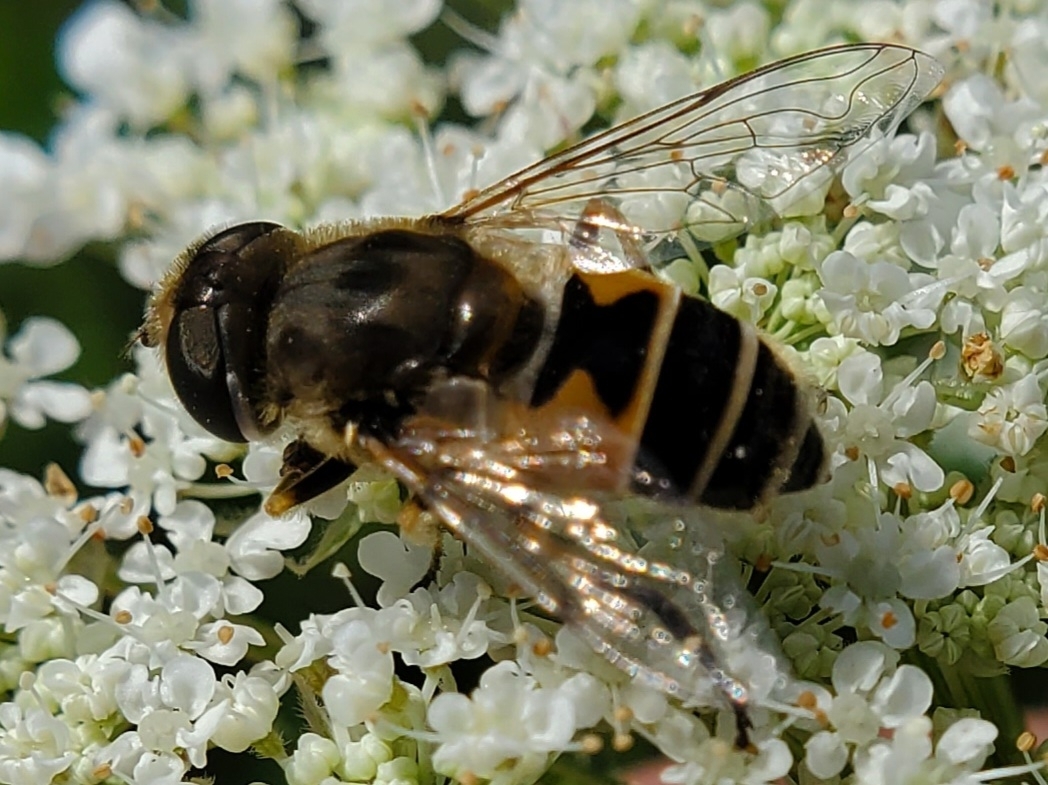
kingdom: Animalia
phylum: Arthropoda
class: Insecta
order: Diptera
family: Syrphidae
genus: Eristalis
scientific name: Eristalis arbustorum
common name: Hover fly
